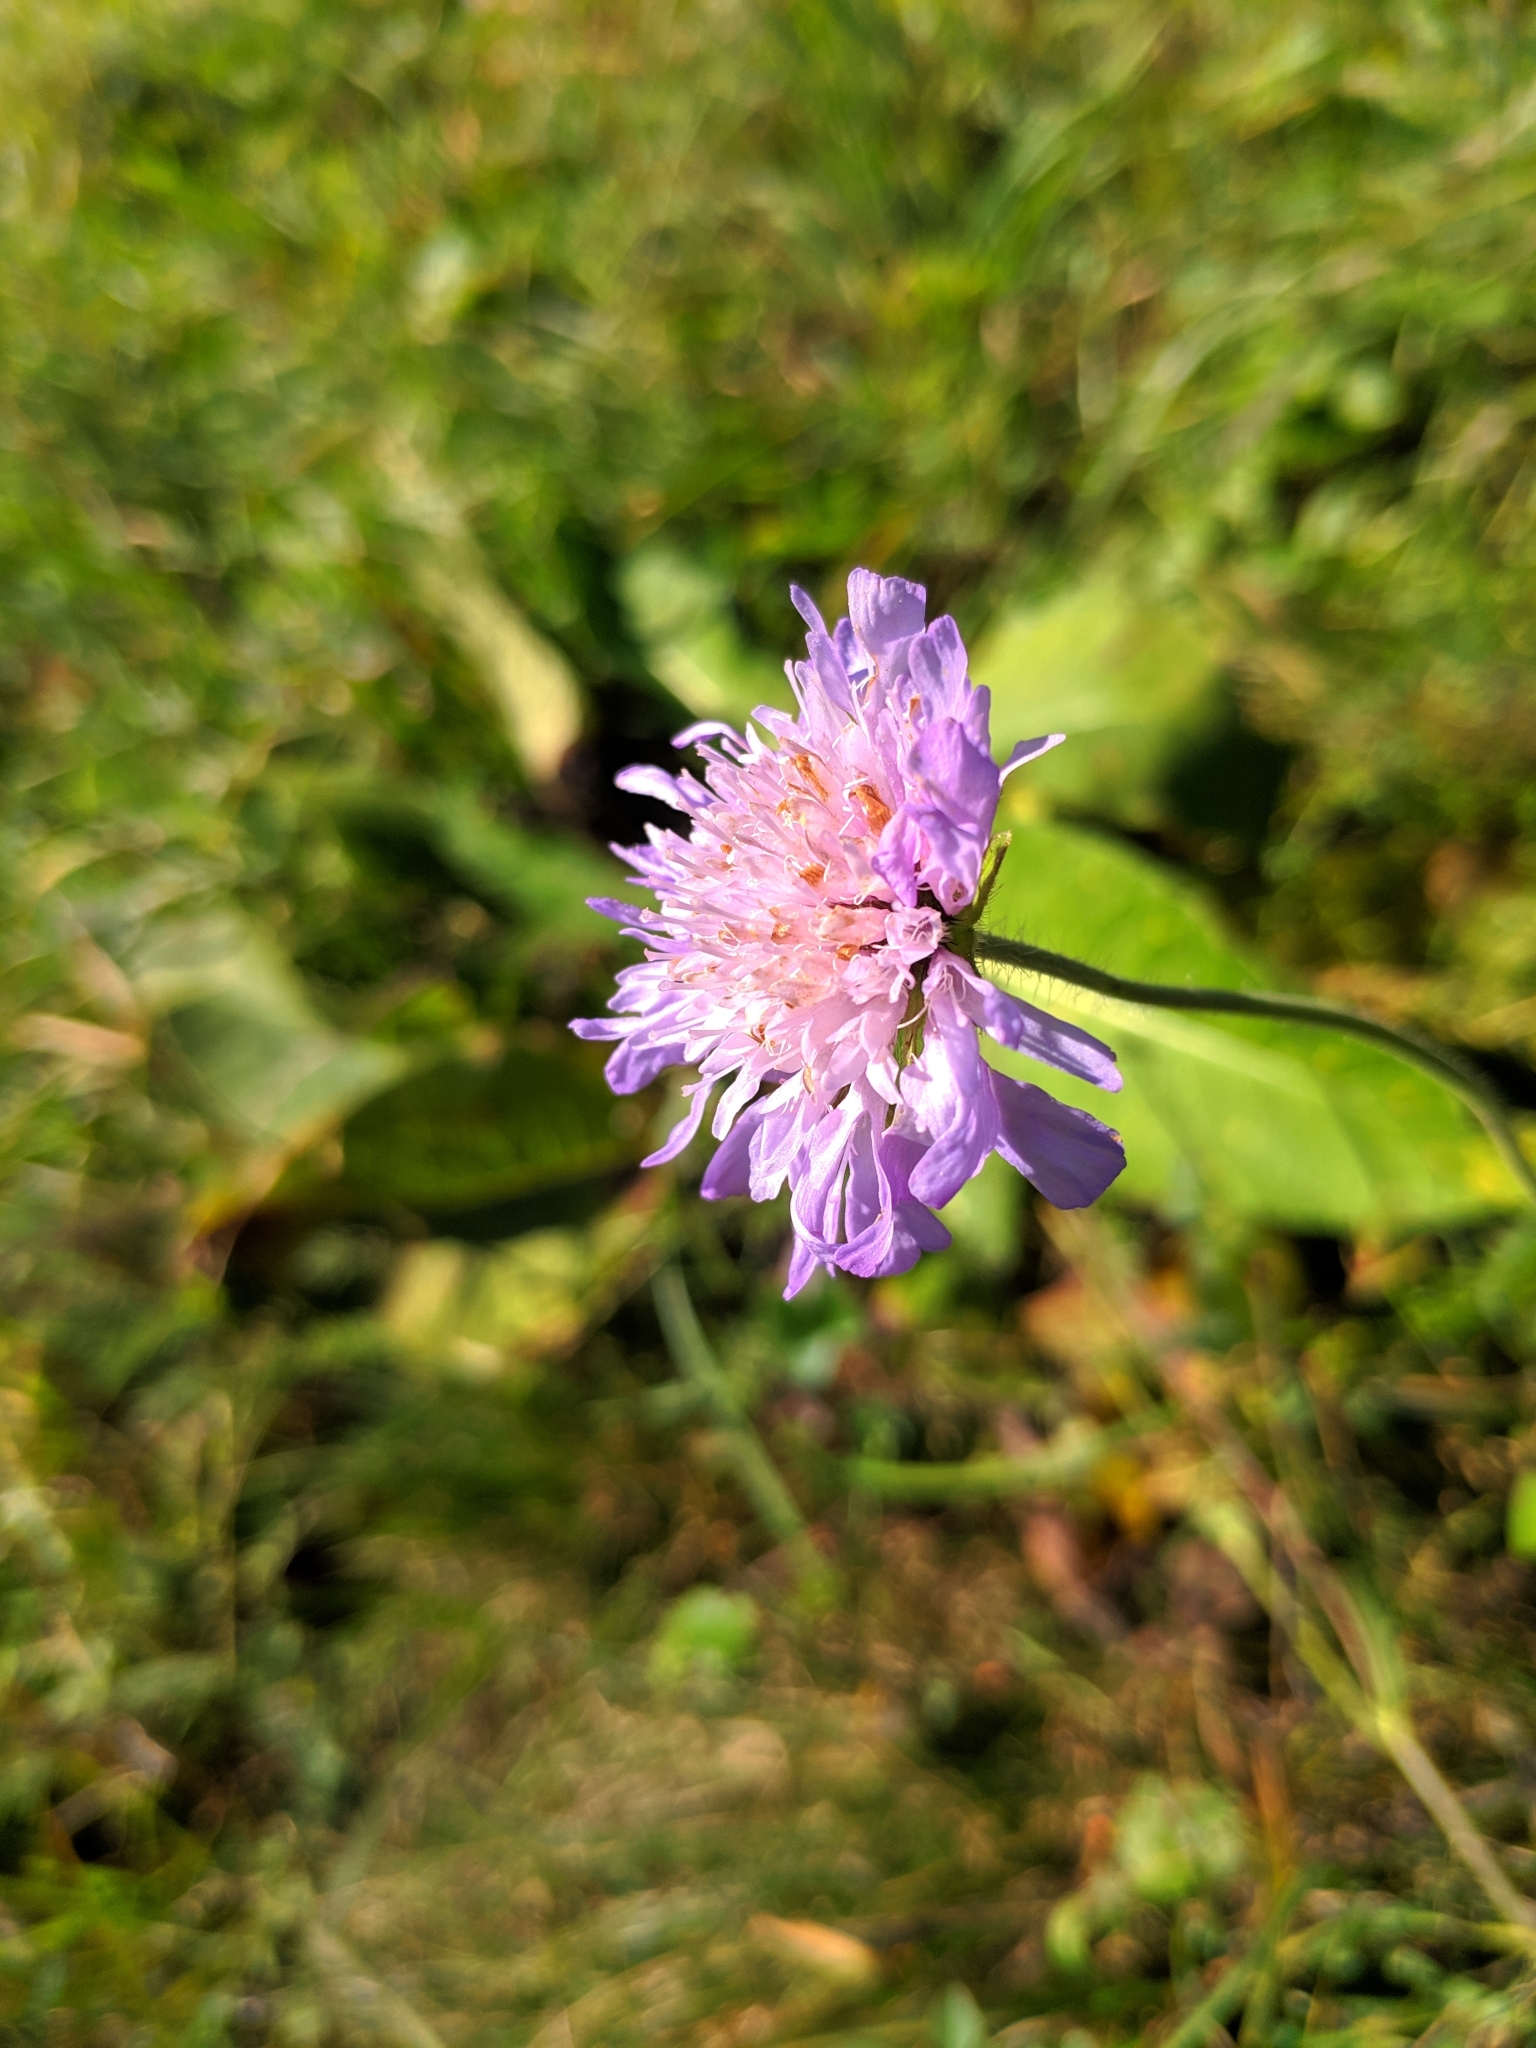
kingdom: Plantae
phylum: Tracheophyta
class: Magnoliopsida
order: Dipsacales
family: Caprifoliaceae
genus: Knautia
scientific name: Knautia arvensis
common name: Field scabiosa
